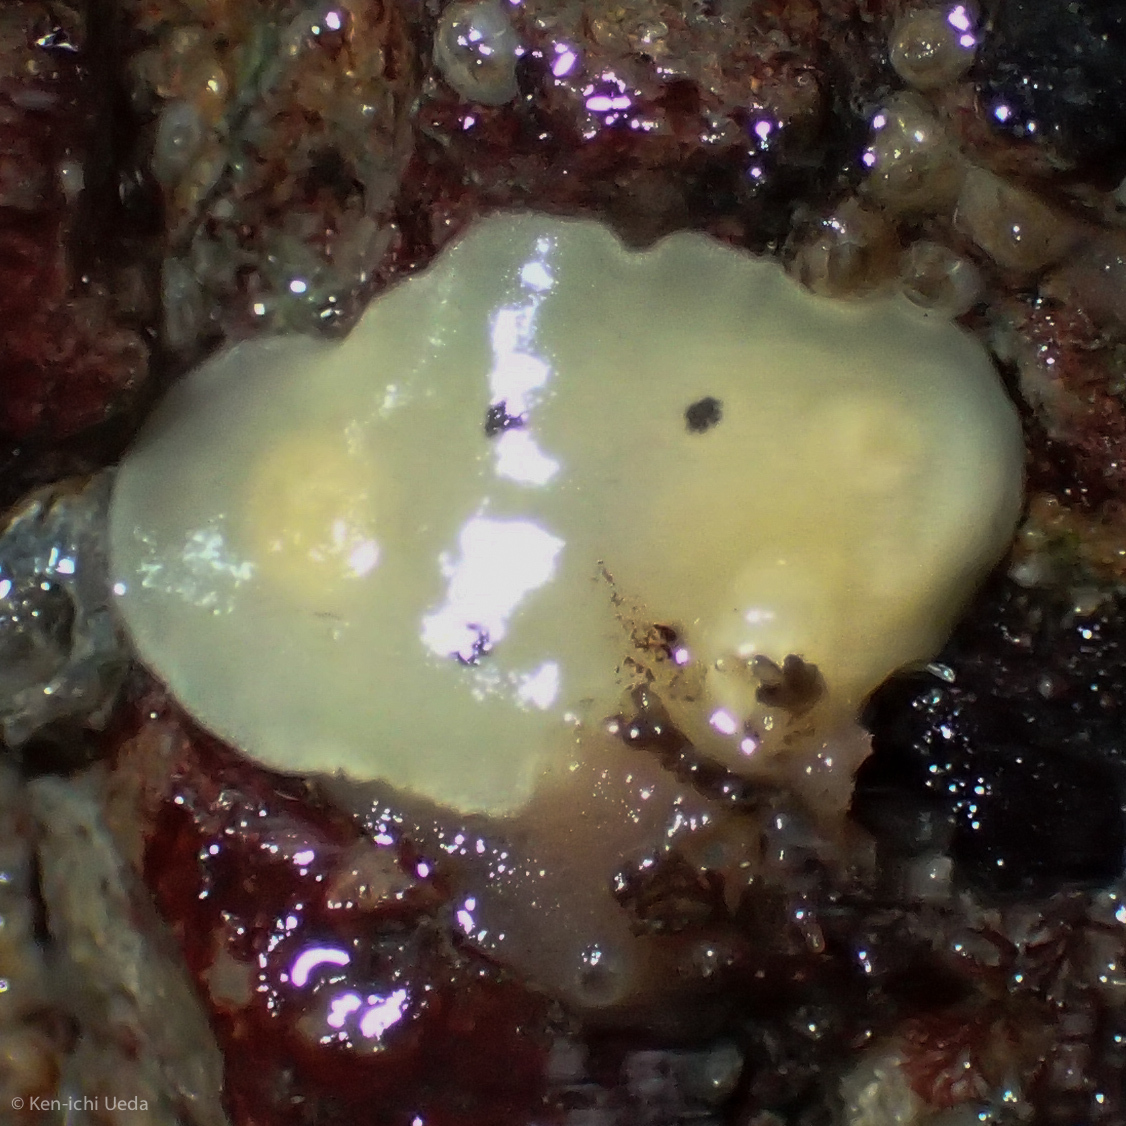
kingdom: Animalia
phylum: Mollusca
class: Gastropoda
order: Nudibranchia
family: Discodorididae
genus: Diaulula
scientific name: Diaulula sandiegensis
